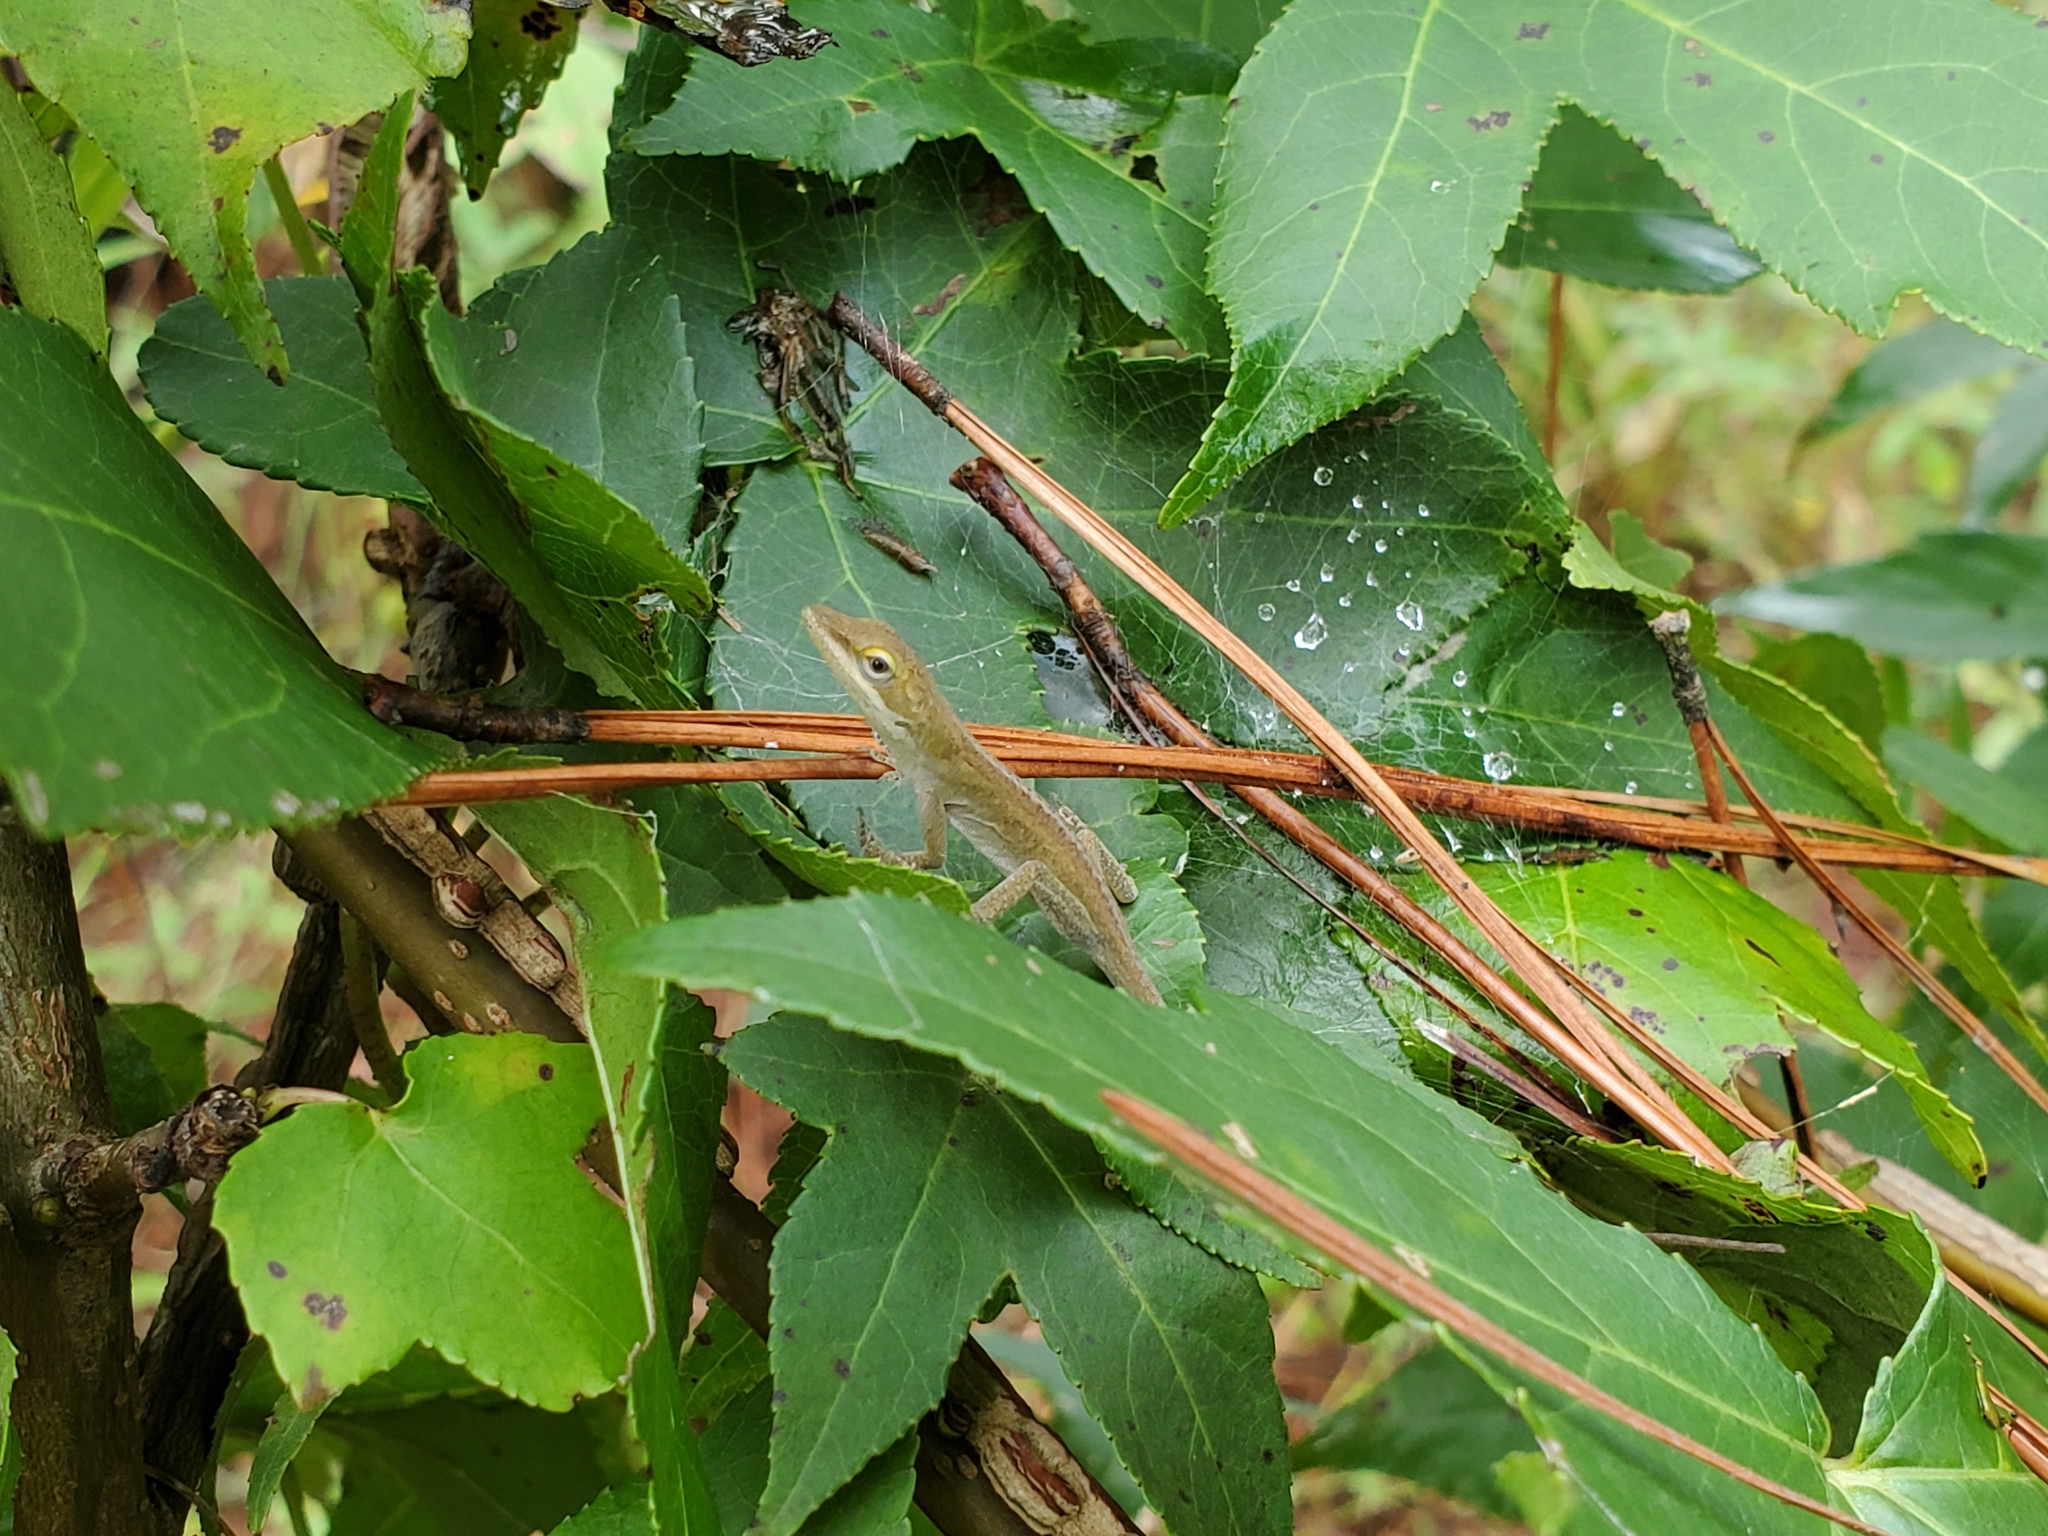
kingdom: Animalia
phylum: Chordata
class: Squamata
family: Dactyloidae
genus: Anolis
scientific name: Anolis carolinensis
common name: Green anole
